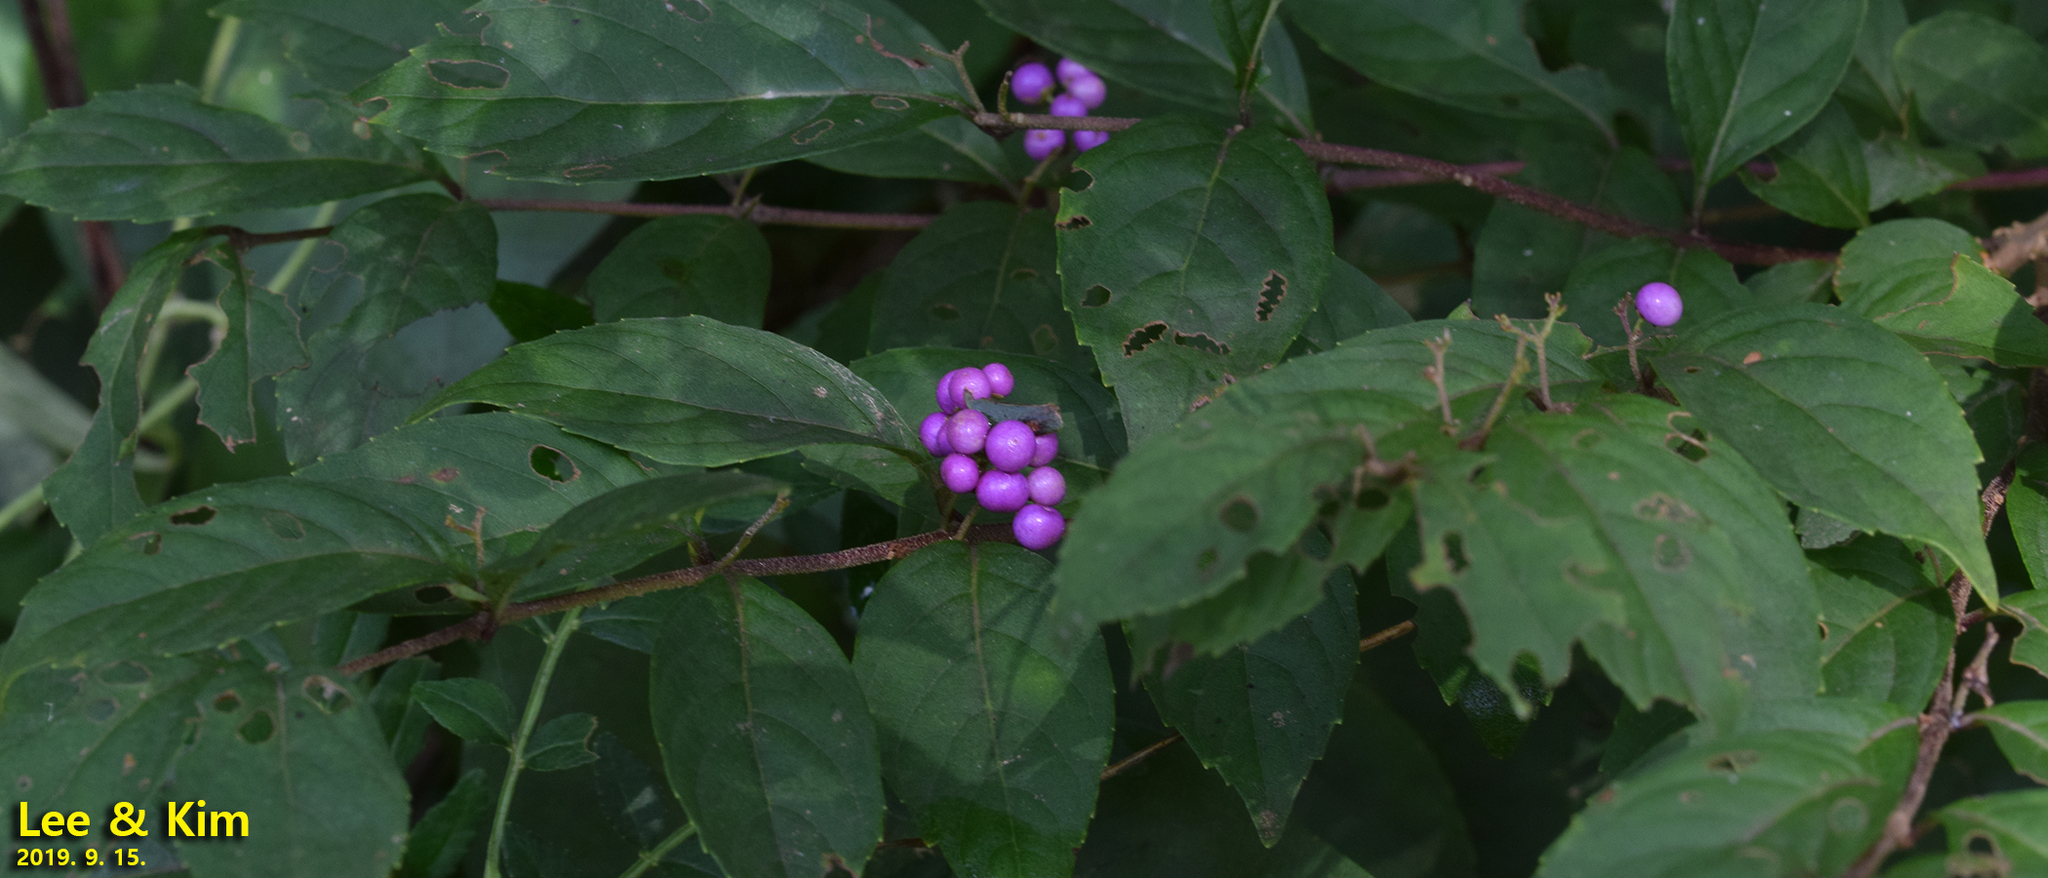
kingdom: Plantae
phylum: Tracheophyta
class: Magnoliopsida
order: Lamiales
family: Lamiaceae
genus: Callicarpa
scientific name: Callicarpa dichotoma
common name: Purple beauty-berry
